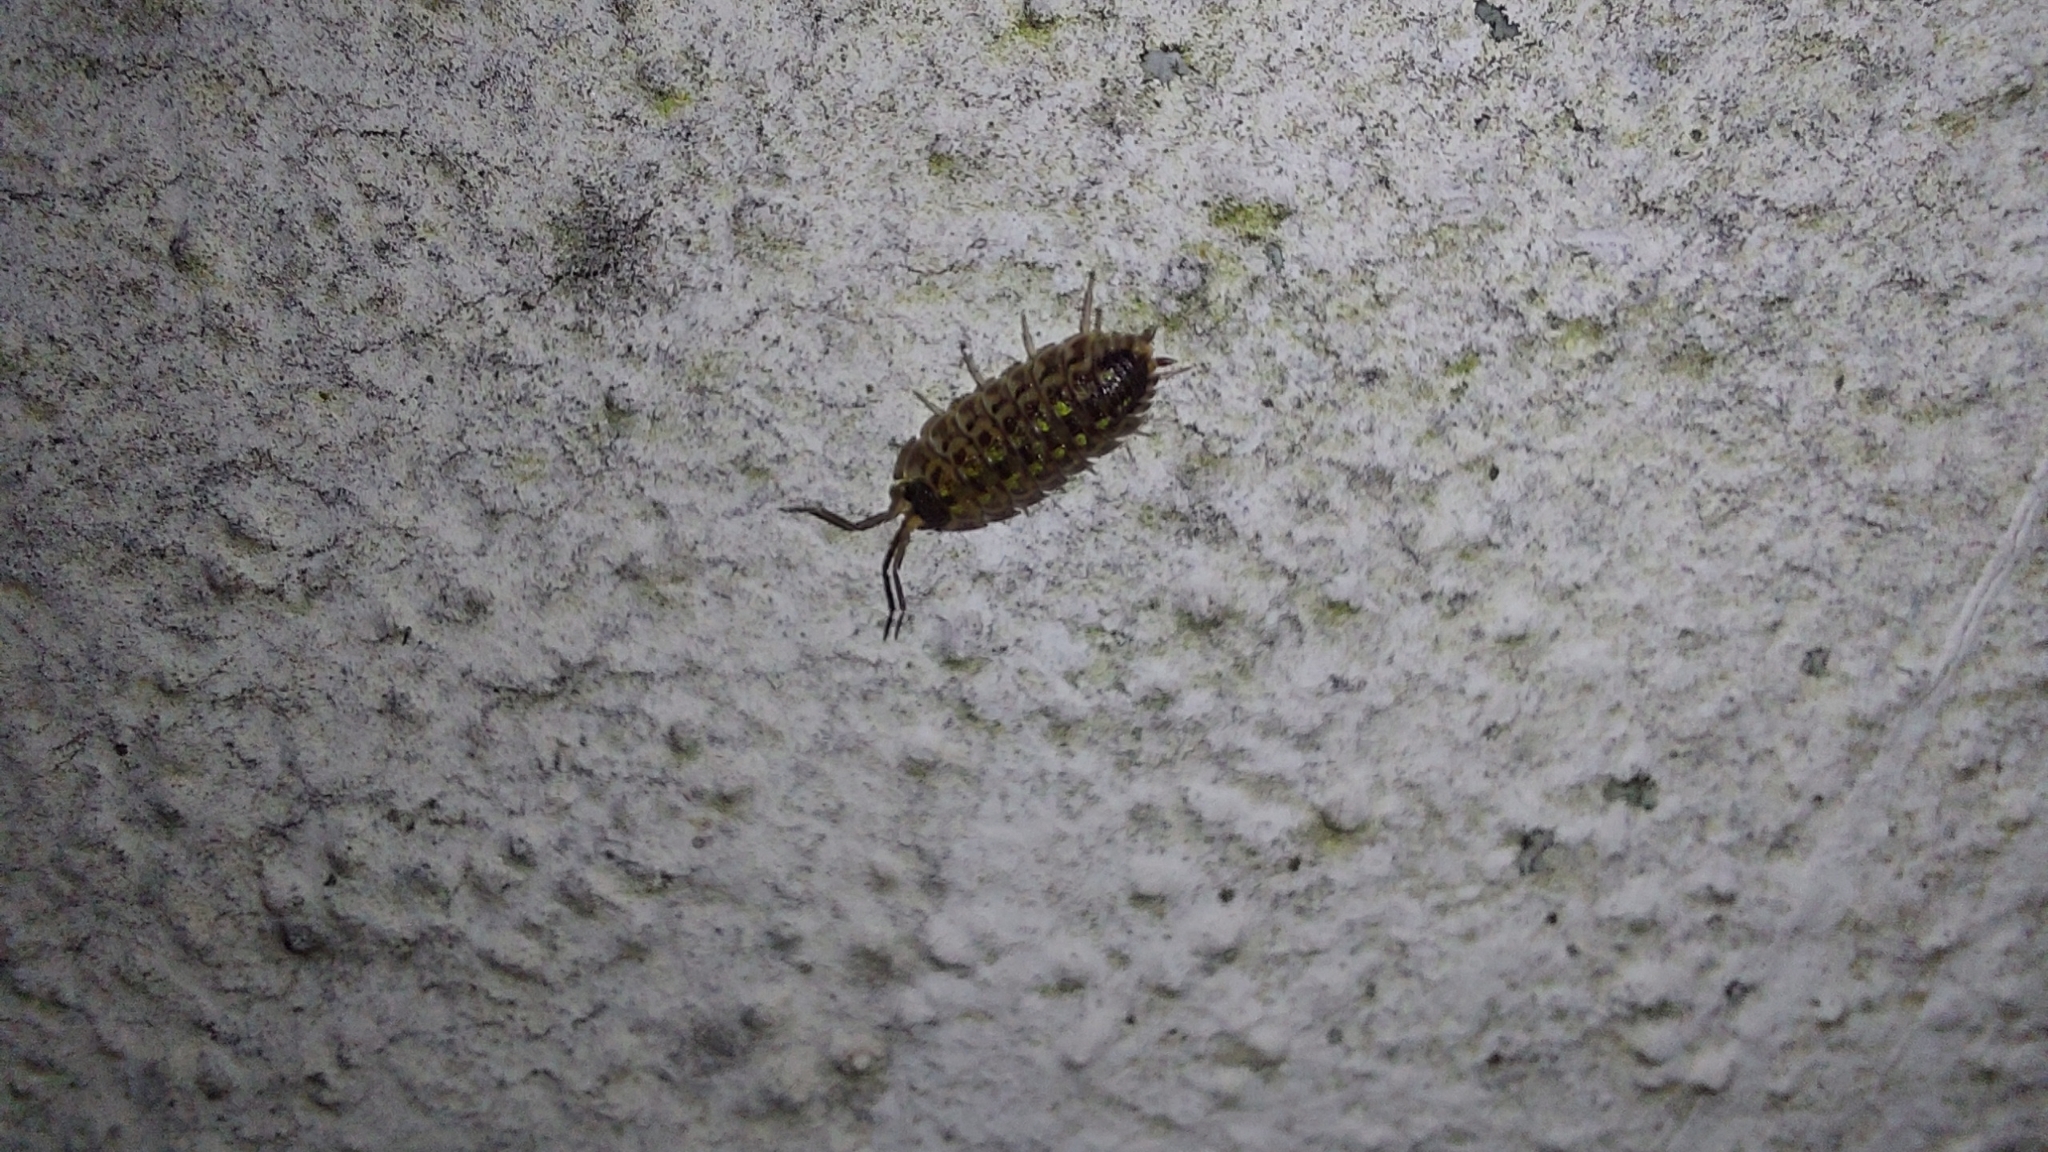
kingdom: Animalia
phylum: Arthropoda
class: Malacostraca
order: Isopoda
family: Porcellionidae
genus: Porcellio
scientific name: Porcellio spinicornis
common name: Painted woodlouse
